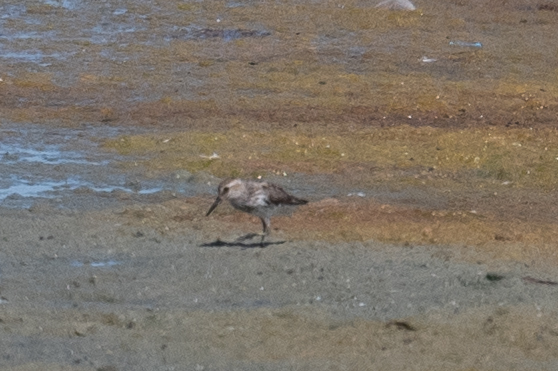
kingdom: Animalia
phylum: Chordata
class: Aves
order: Charadriiformes
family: Scolopacidae
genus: Calidris
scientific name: Calidris mauri
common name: Western sandpiper
